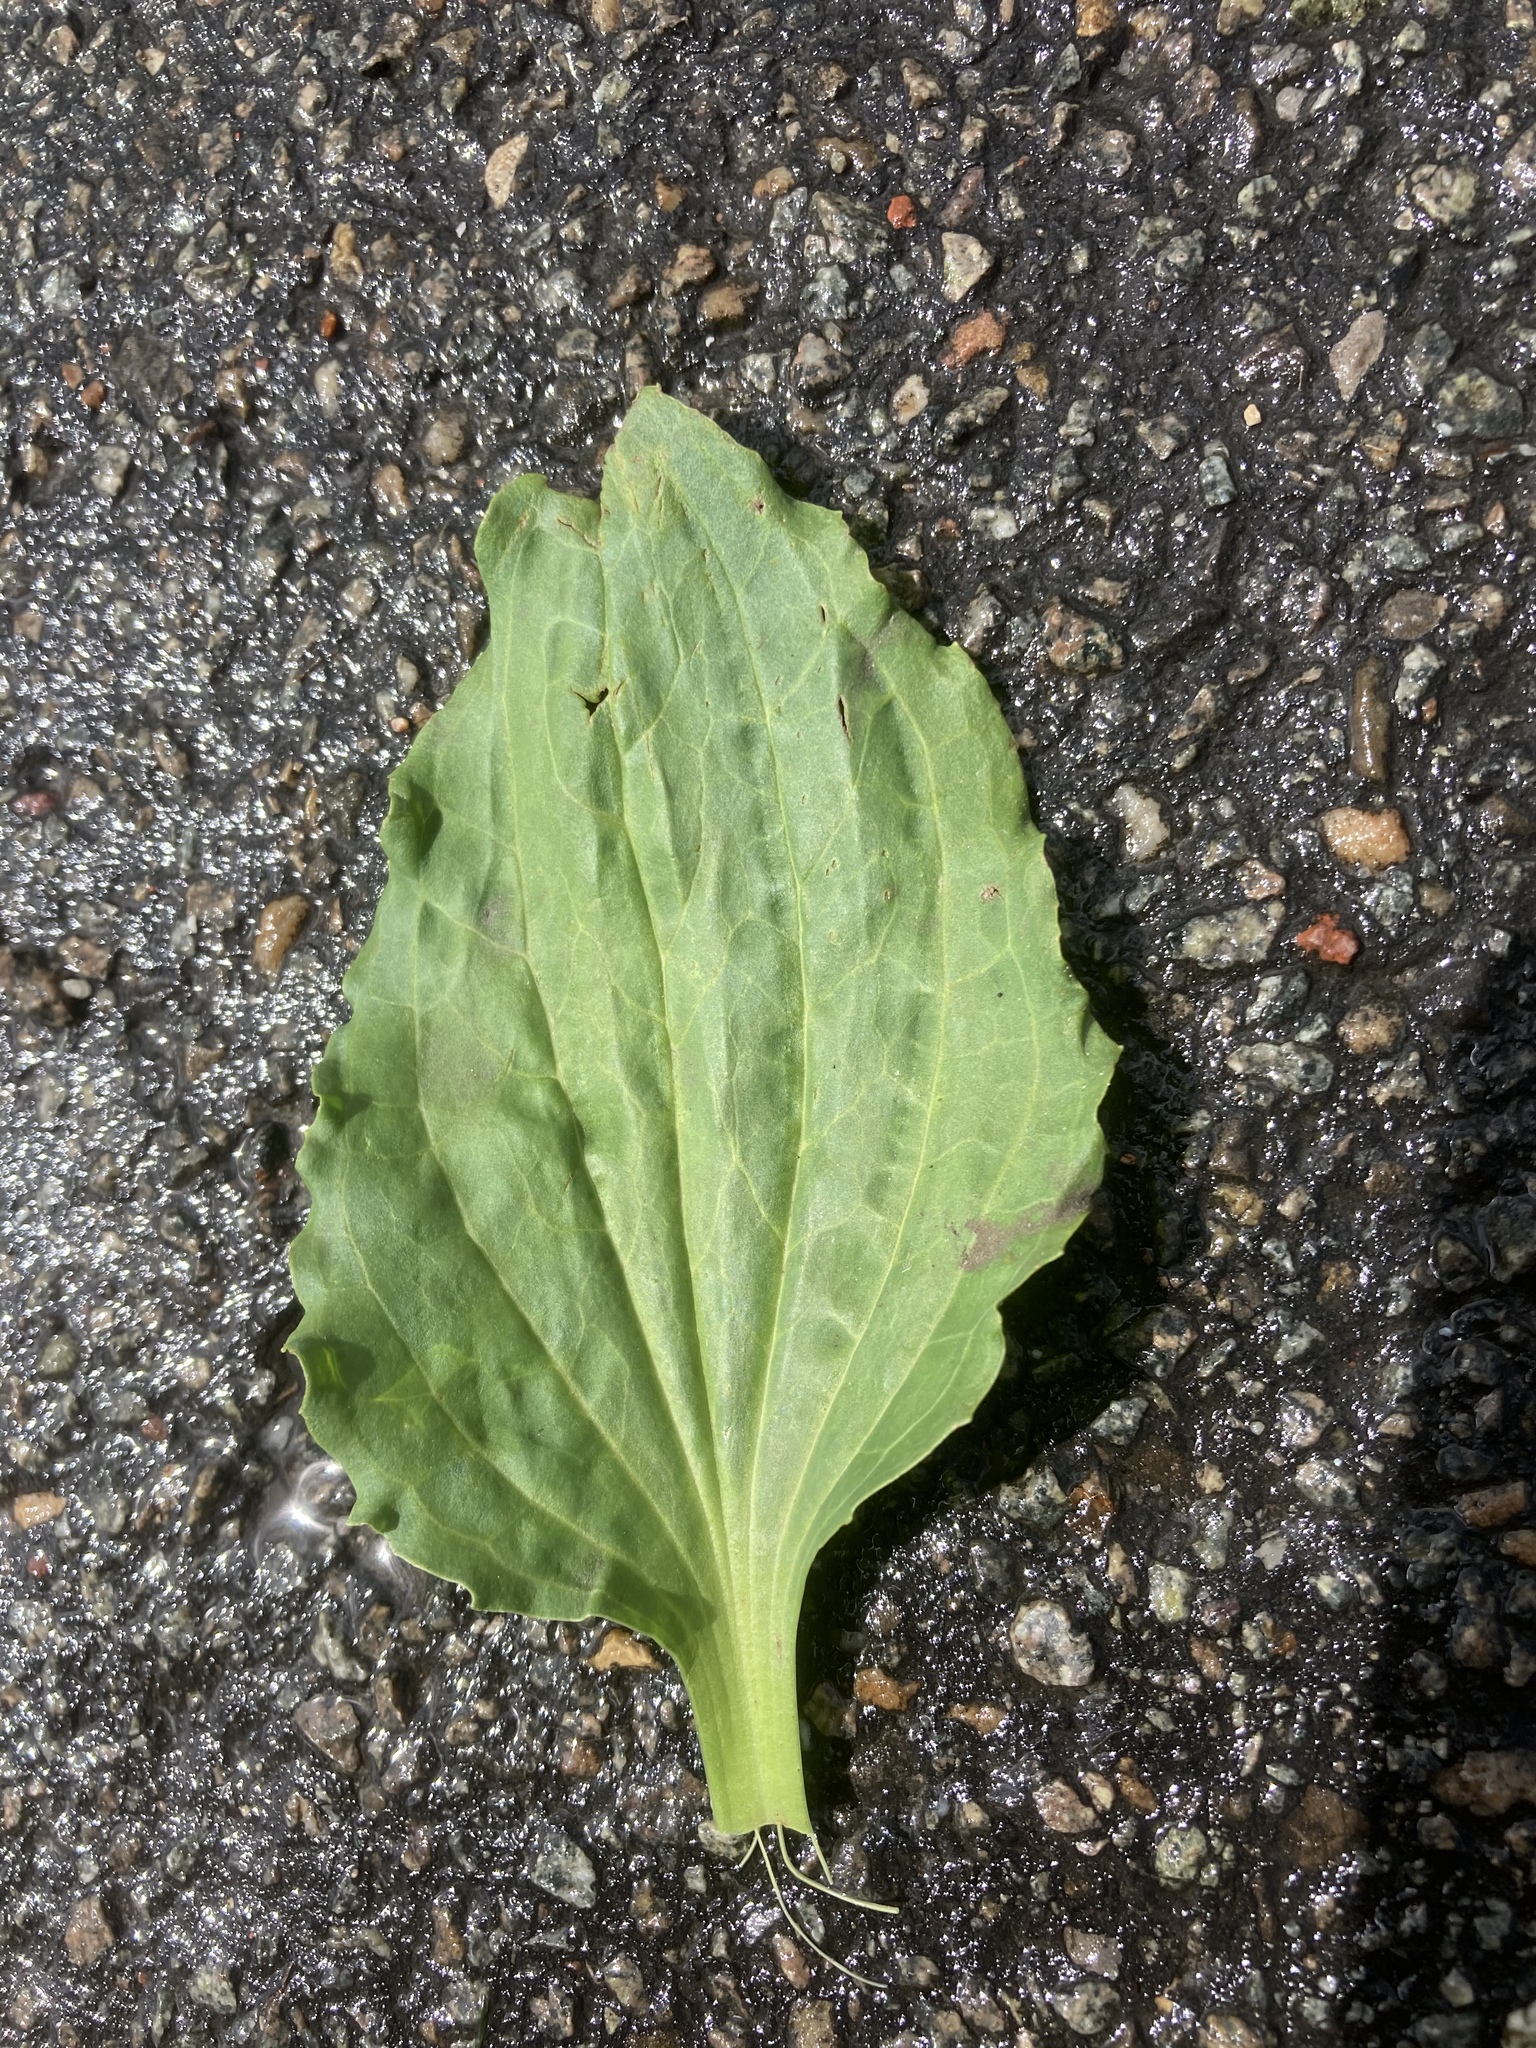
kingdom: Plantae
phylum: Tracheophyta
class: Magnoliopsida
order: Lamiales
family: Plantaginaceae
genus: Plantago
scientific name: Plantago major
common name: Common plantain
